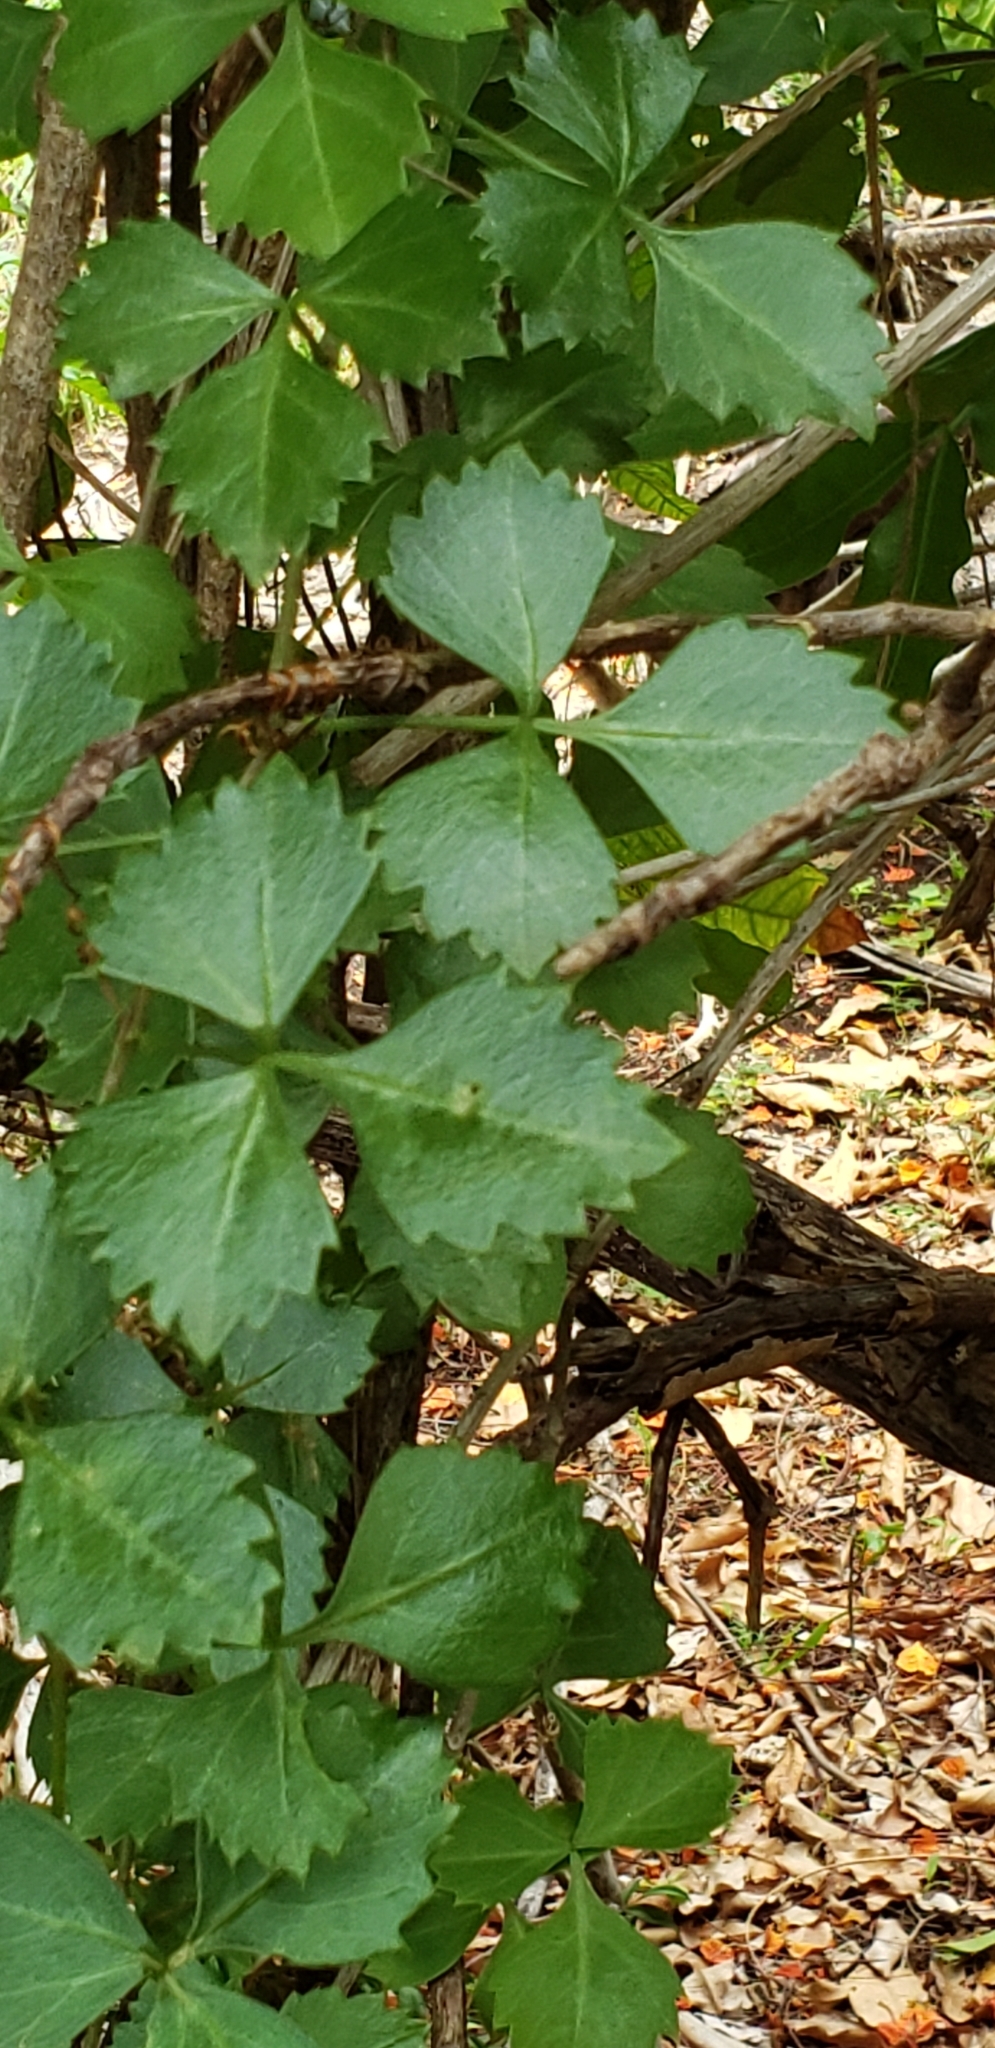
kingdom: Plantae
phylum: Tracheophyta
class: Magnoliopsida
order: Vitales
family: Vitaceae
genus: Cissus
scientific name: Cissus trifoliata
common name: Vine-sorrel
